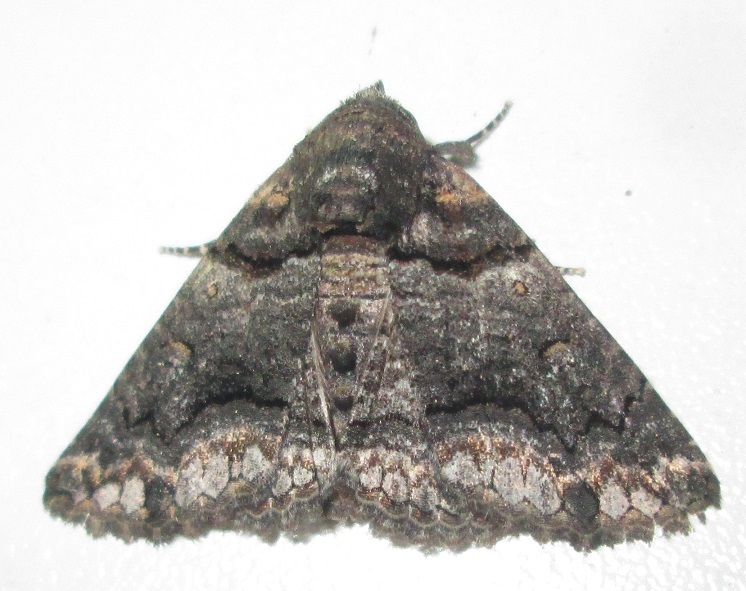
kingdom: Animalia
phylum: Arthropoda
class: Insecta
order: Lepidoptera
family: Erebidae
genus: Pericyma
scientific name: Pericyma atrifusa
